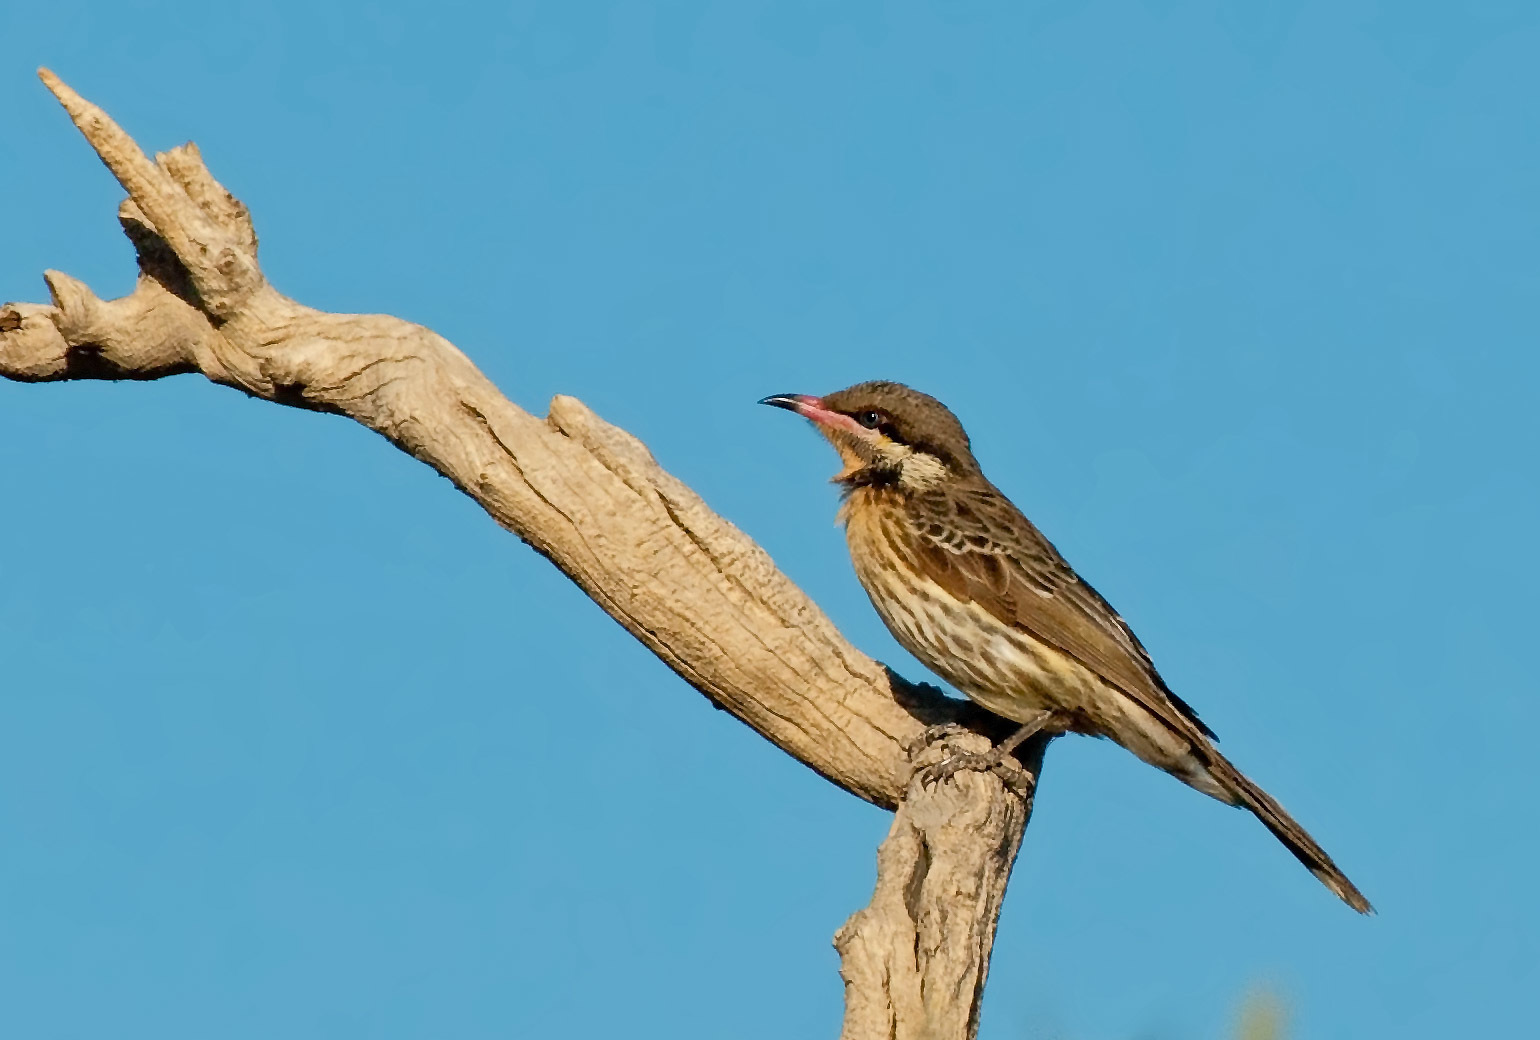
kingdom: Animalia
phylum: Chordata
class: Aves
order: Passeriformes
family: Meliphagidae
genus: Acanthagenys
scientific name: Acanthagenys rufogularis
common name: Spiny-cheeked honeyeater
